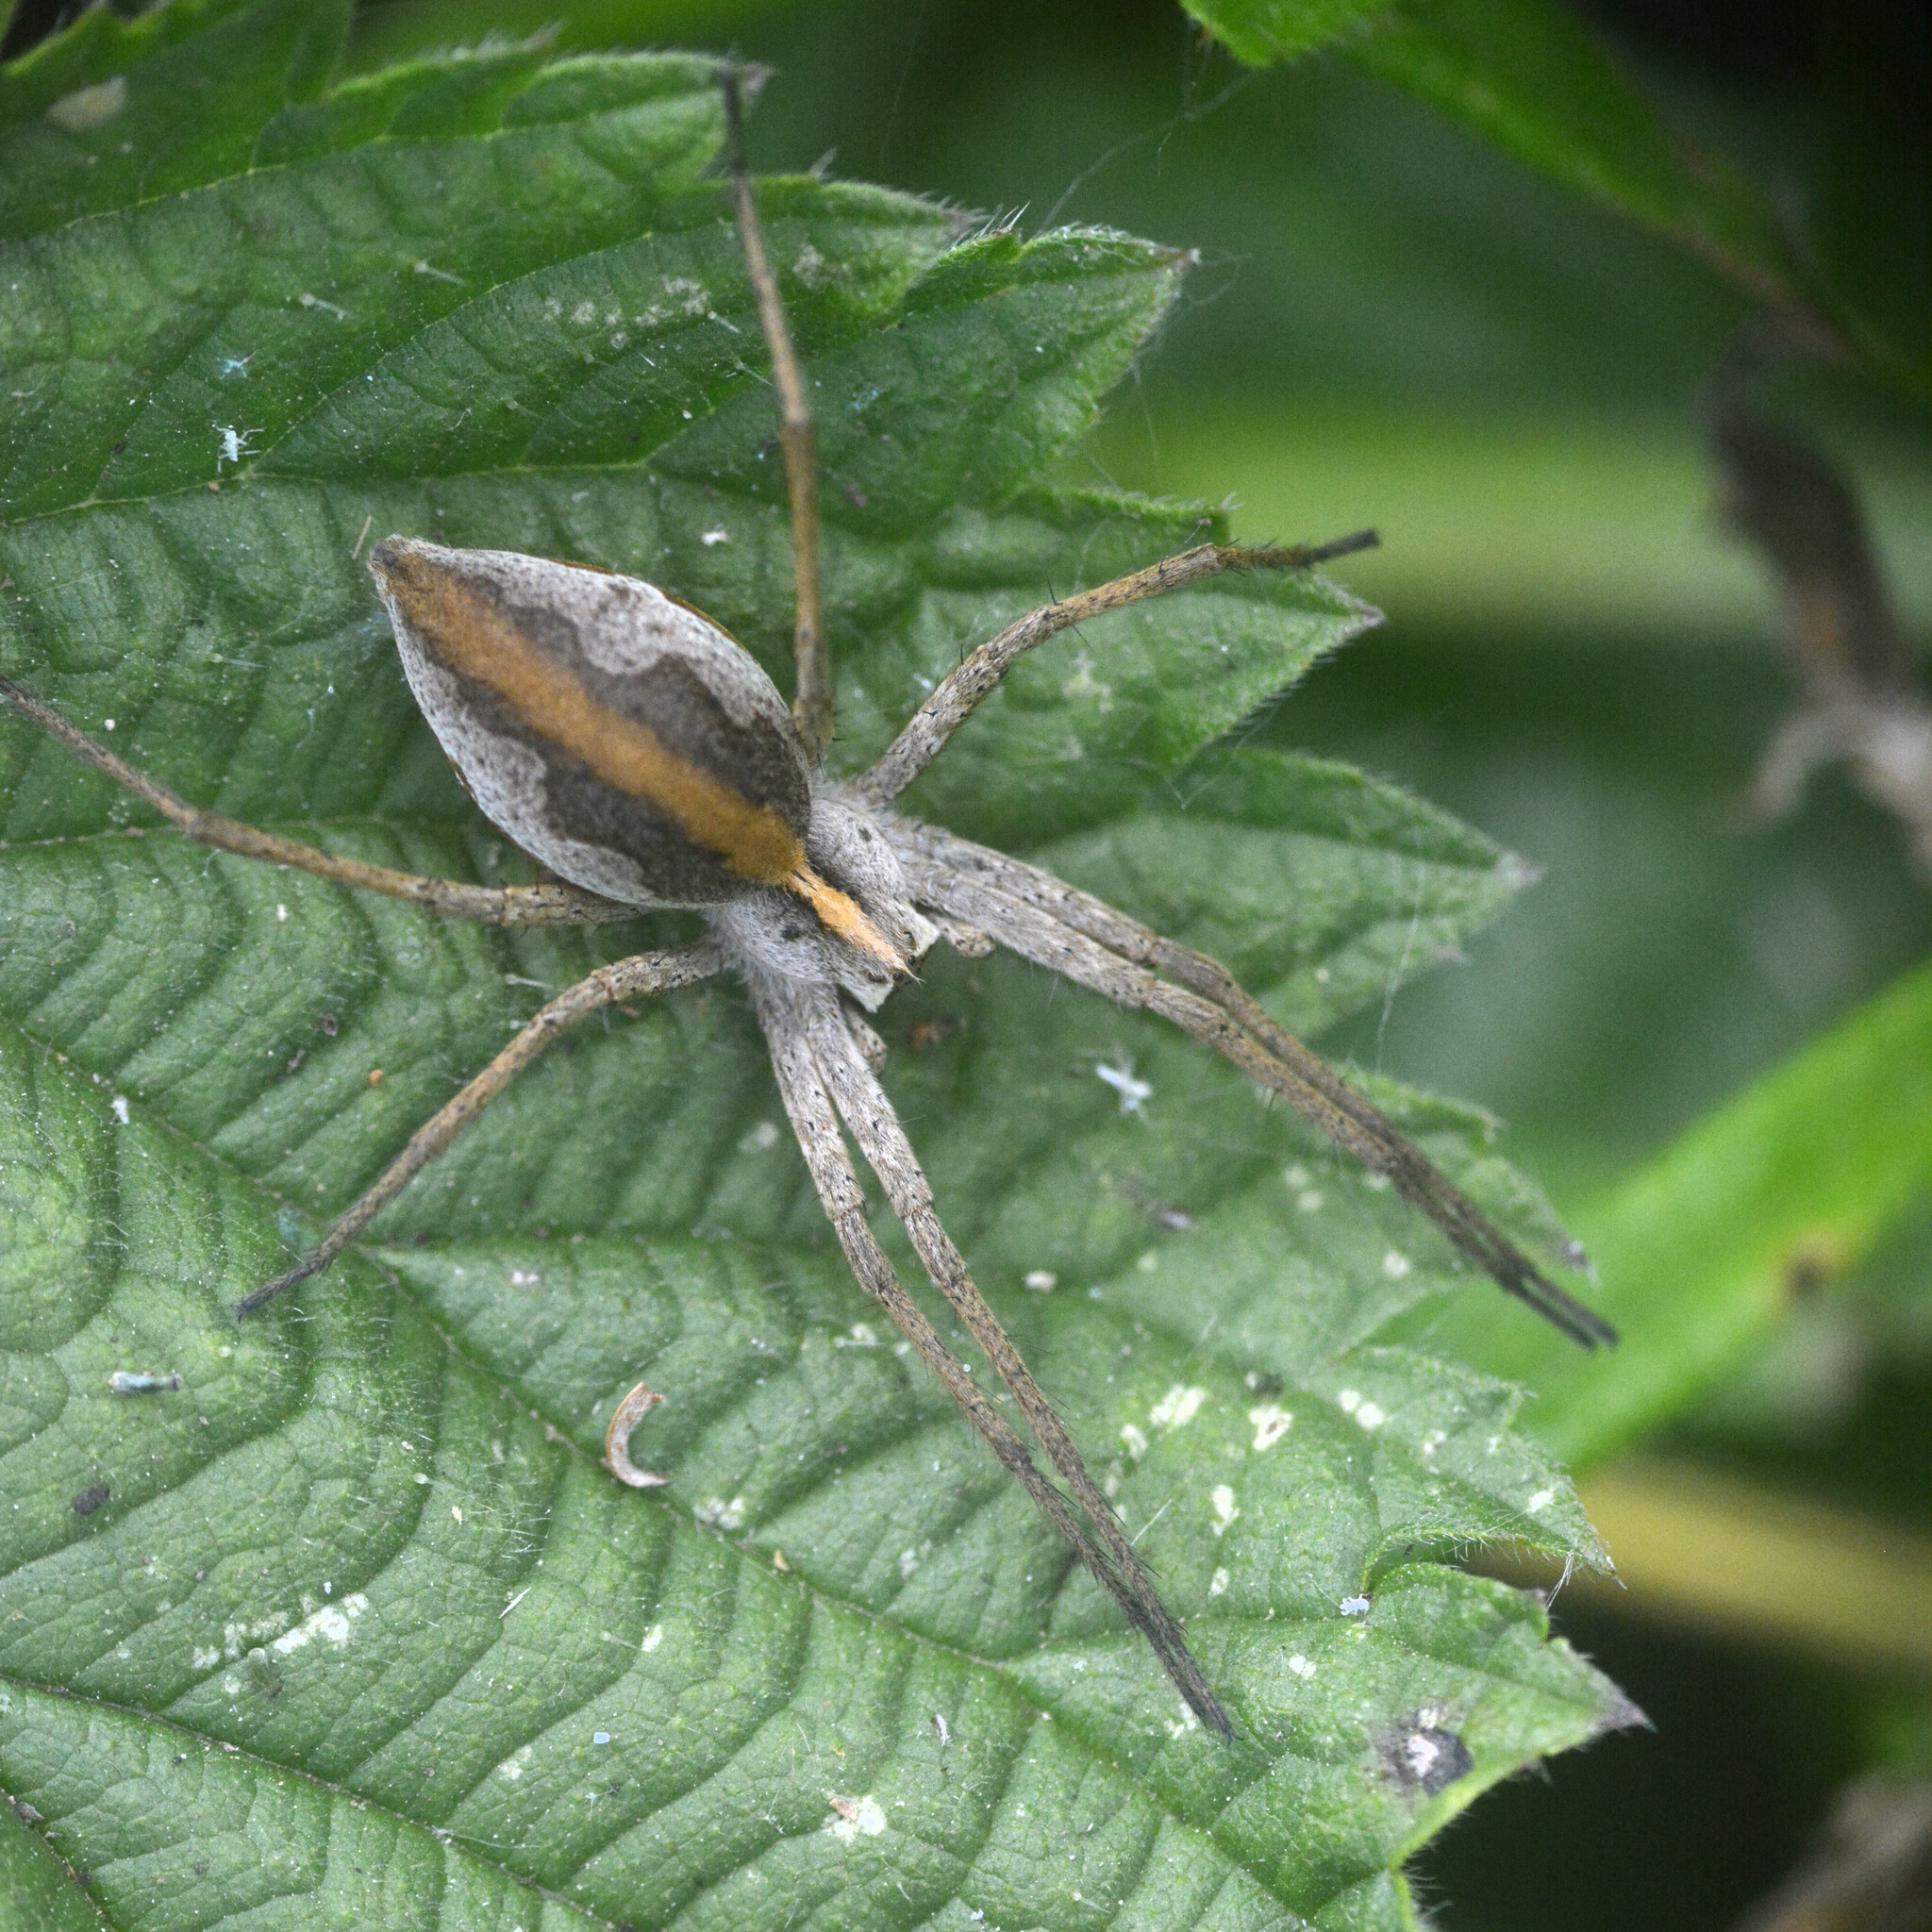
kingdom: Animalia
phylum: Arthropoda
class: Arachnida
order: Araneae
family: Pisauridae
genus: Pisaura
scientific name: Pisaura mirabilis
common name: Tent spider
